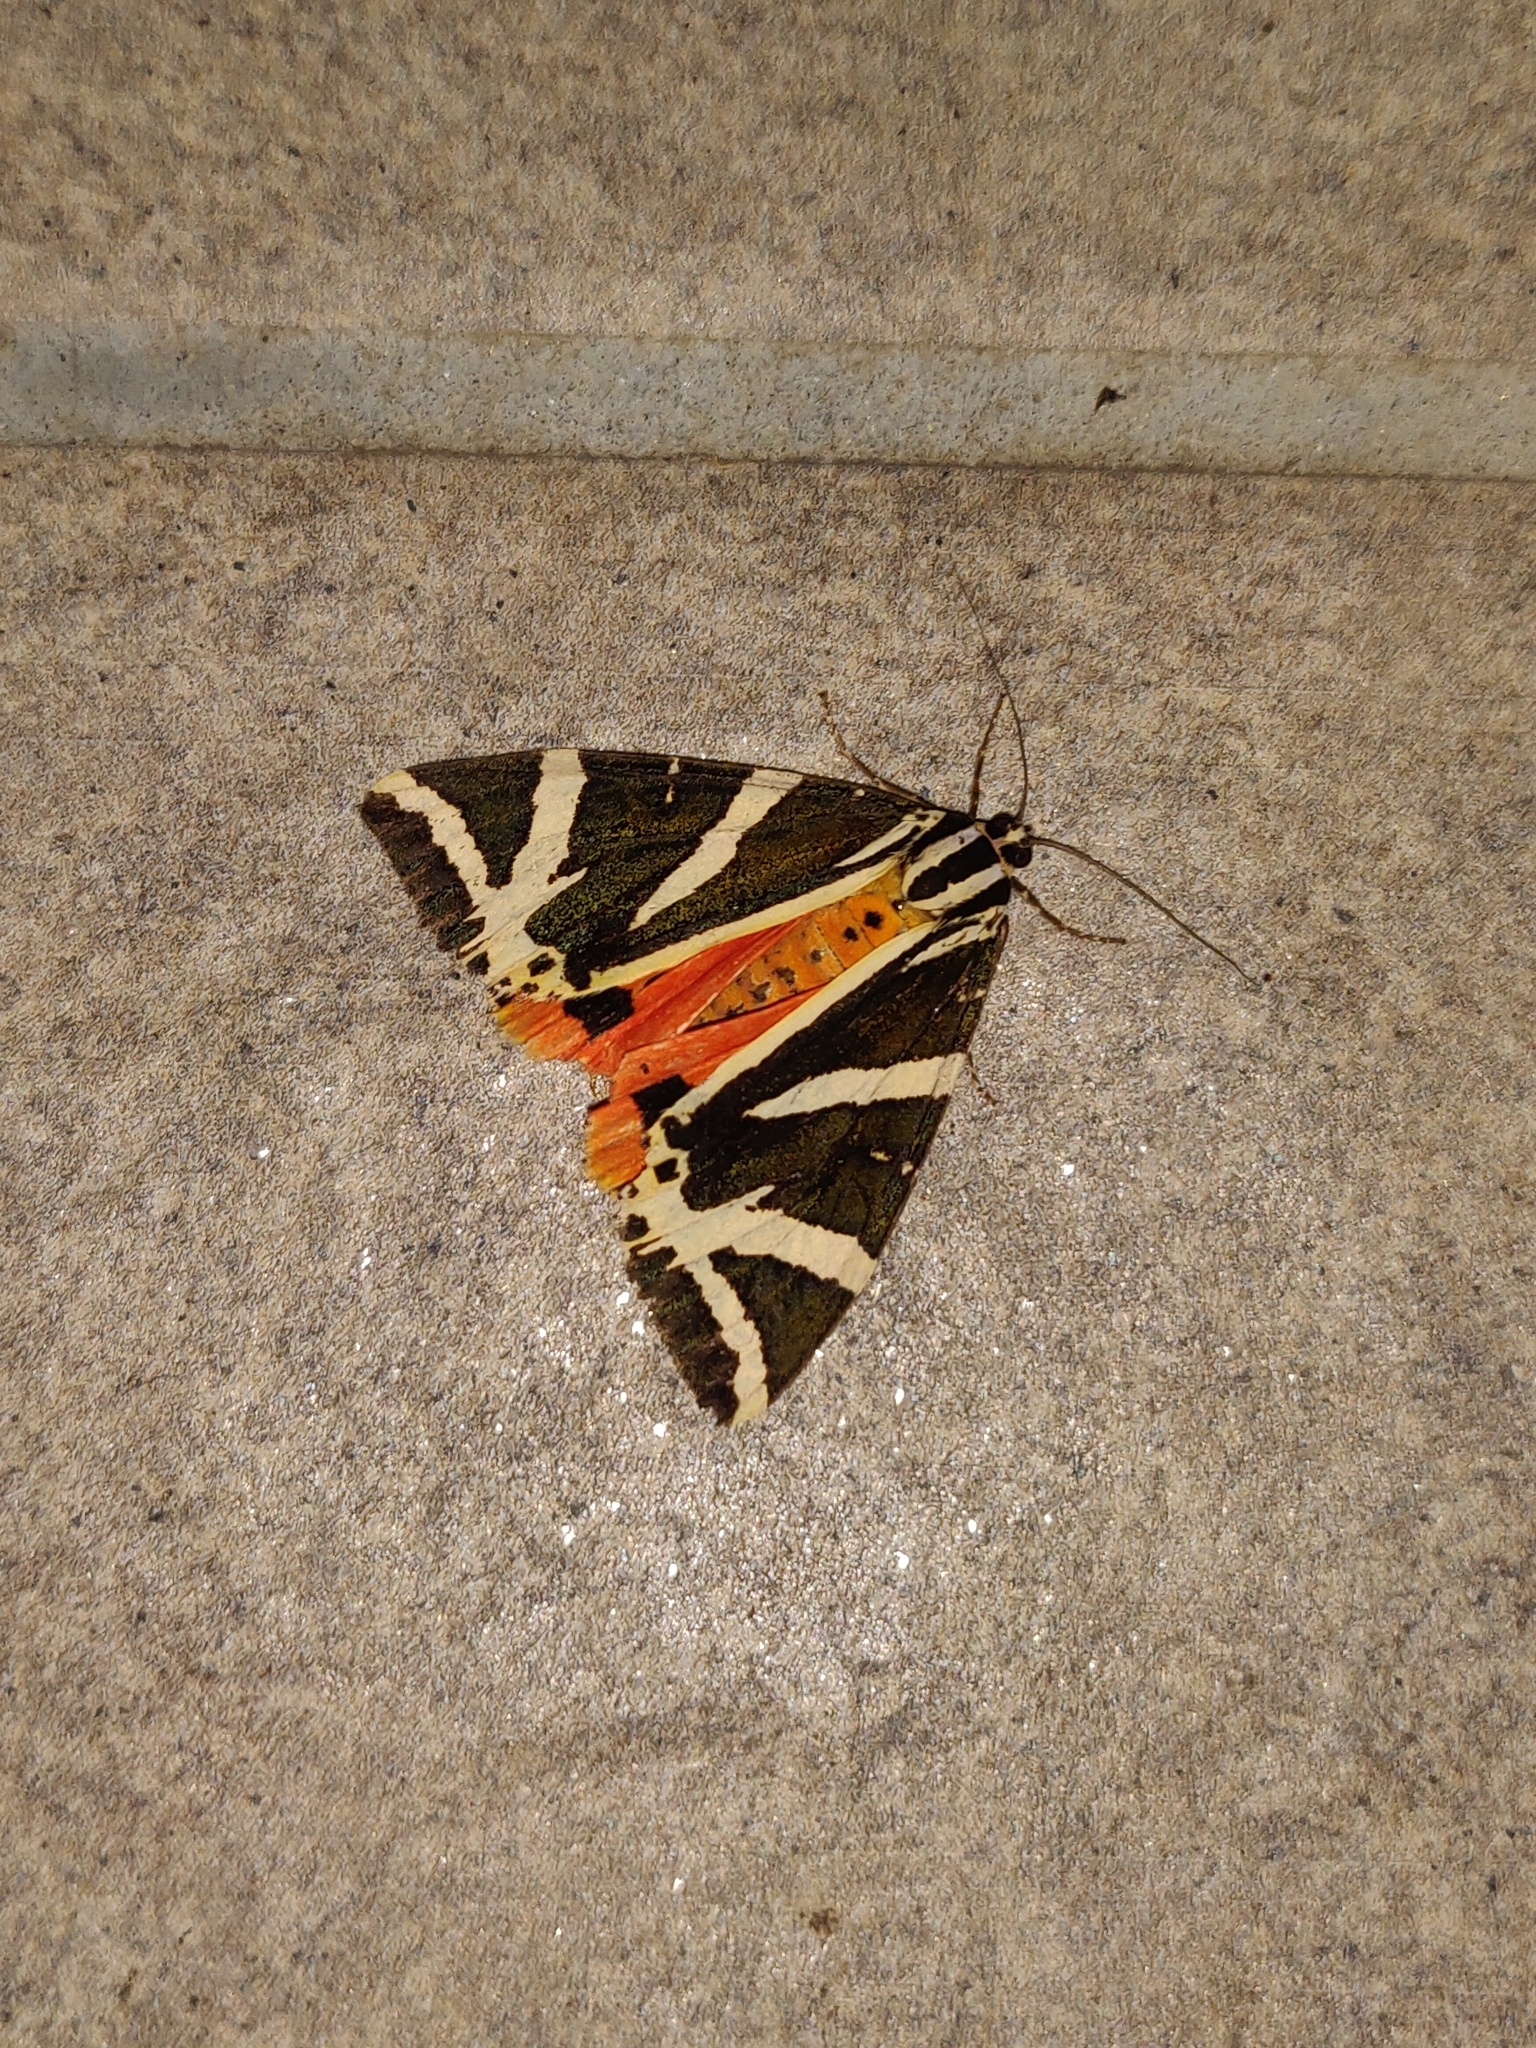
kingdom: Animalia
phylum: Arthropoda
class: Insecta
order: Lepidoptera
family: Erebidae
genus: Euplagia
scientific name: Euplagia quadripunctaria
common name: Jersey tiger
